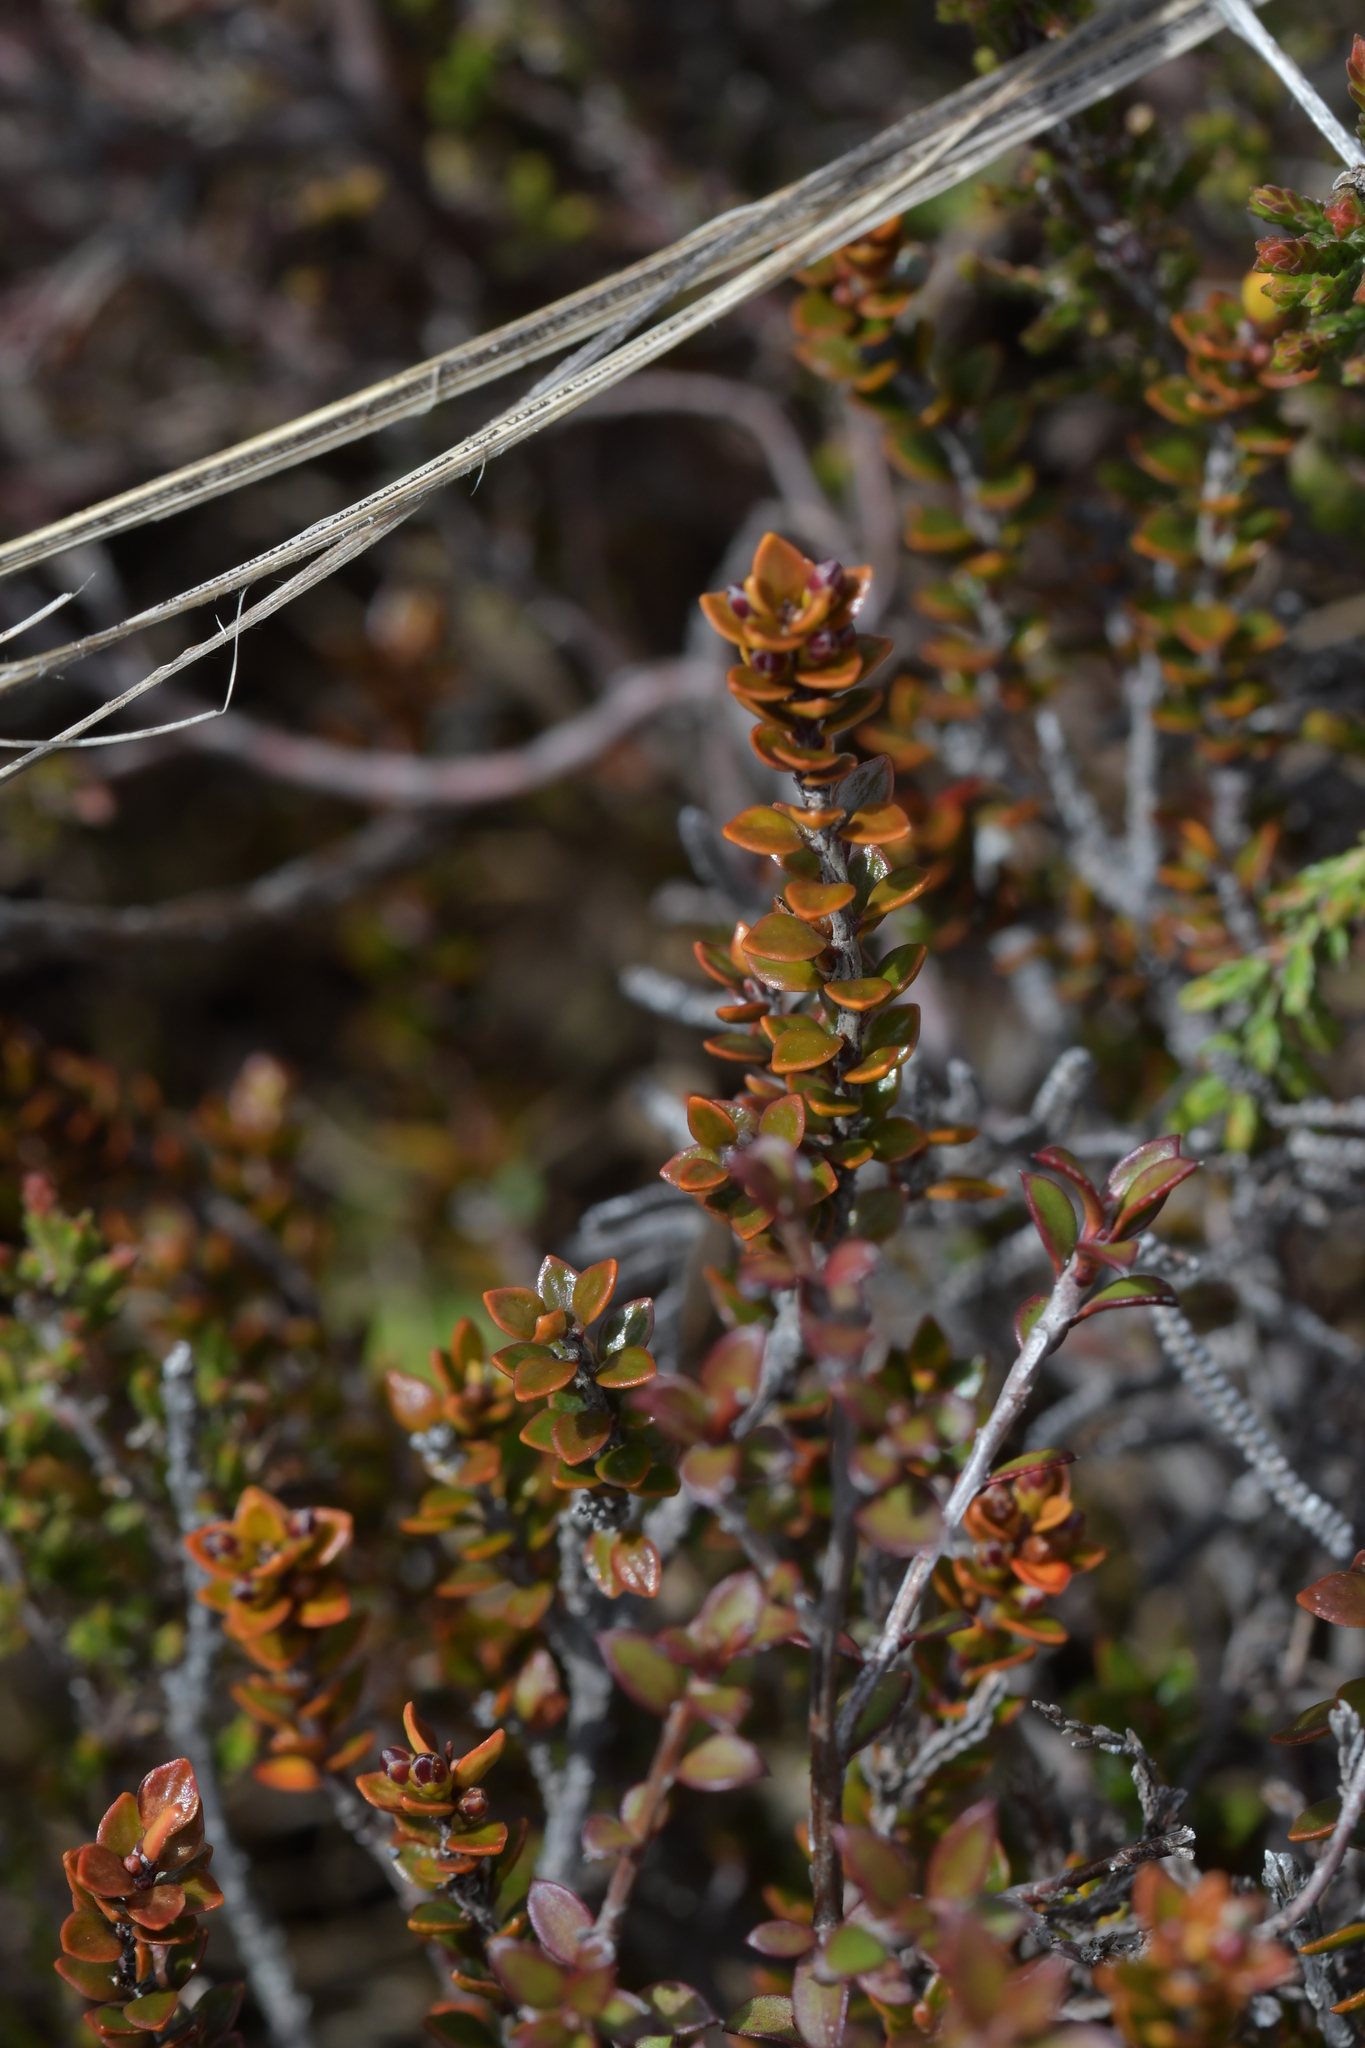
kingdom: Plantae
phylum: Tracheophyta
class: Magnoliopsida
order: Ericales
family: Ericaceae
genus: Epacris
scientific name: Epacris alpina
